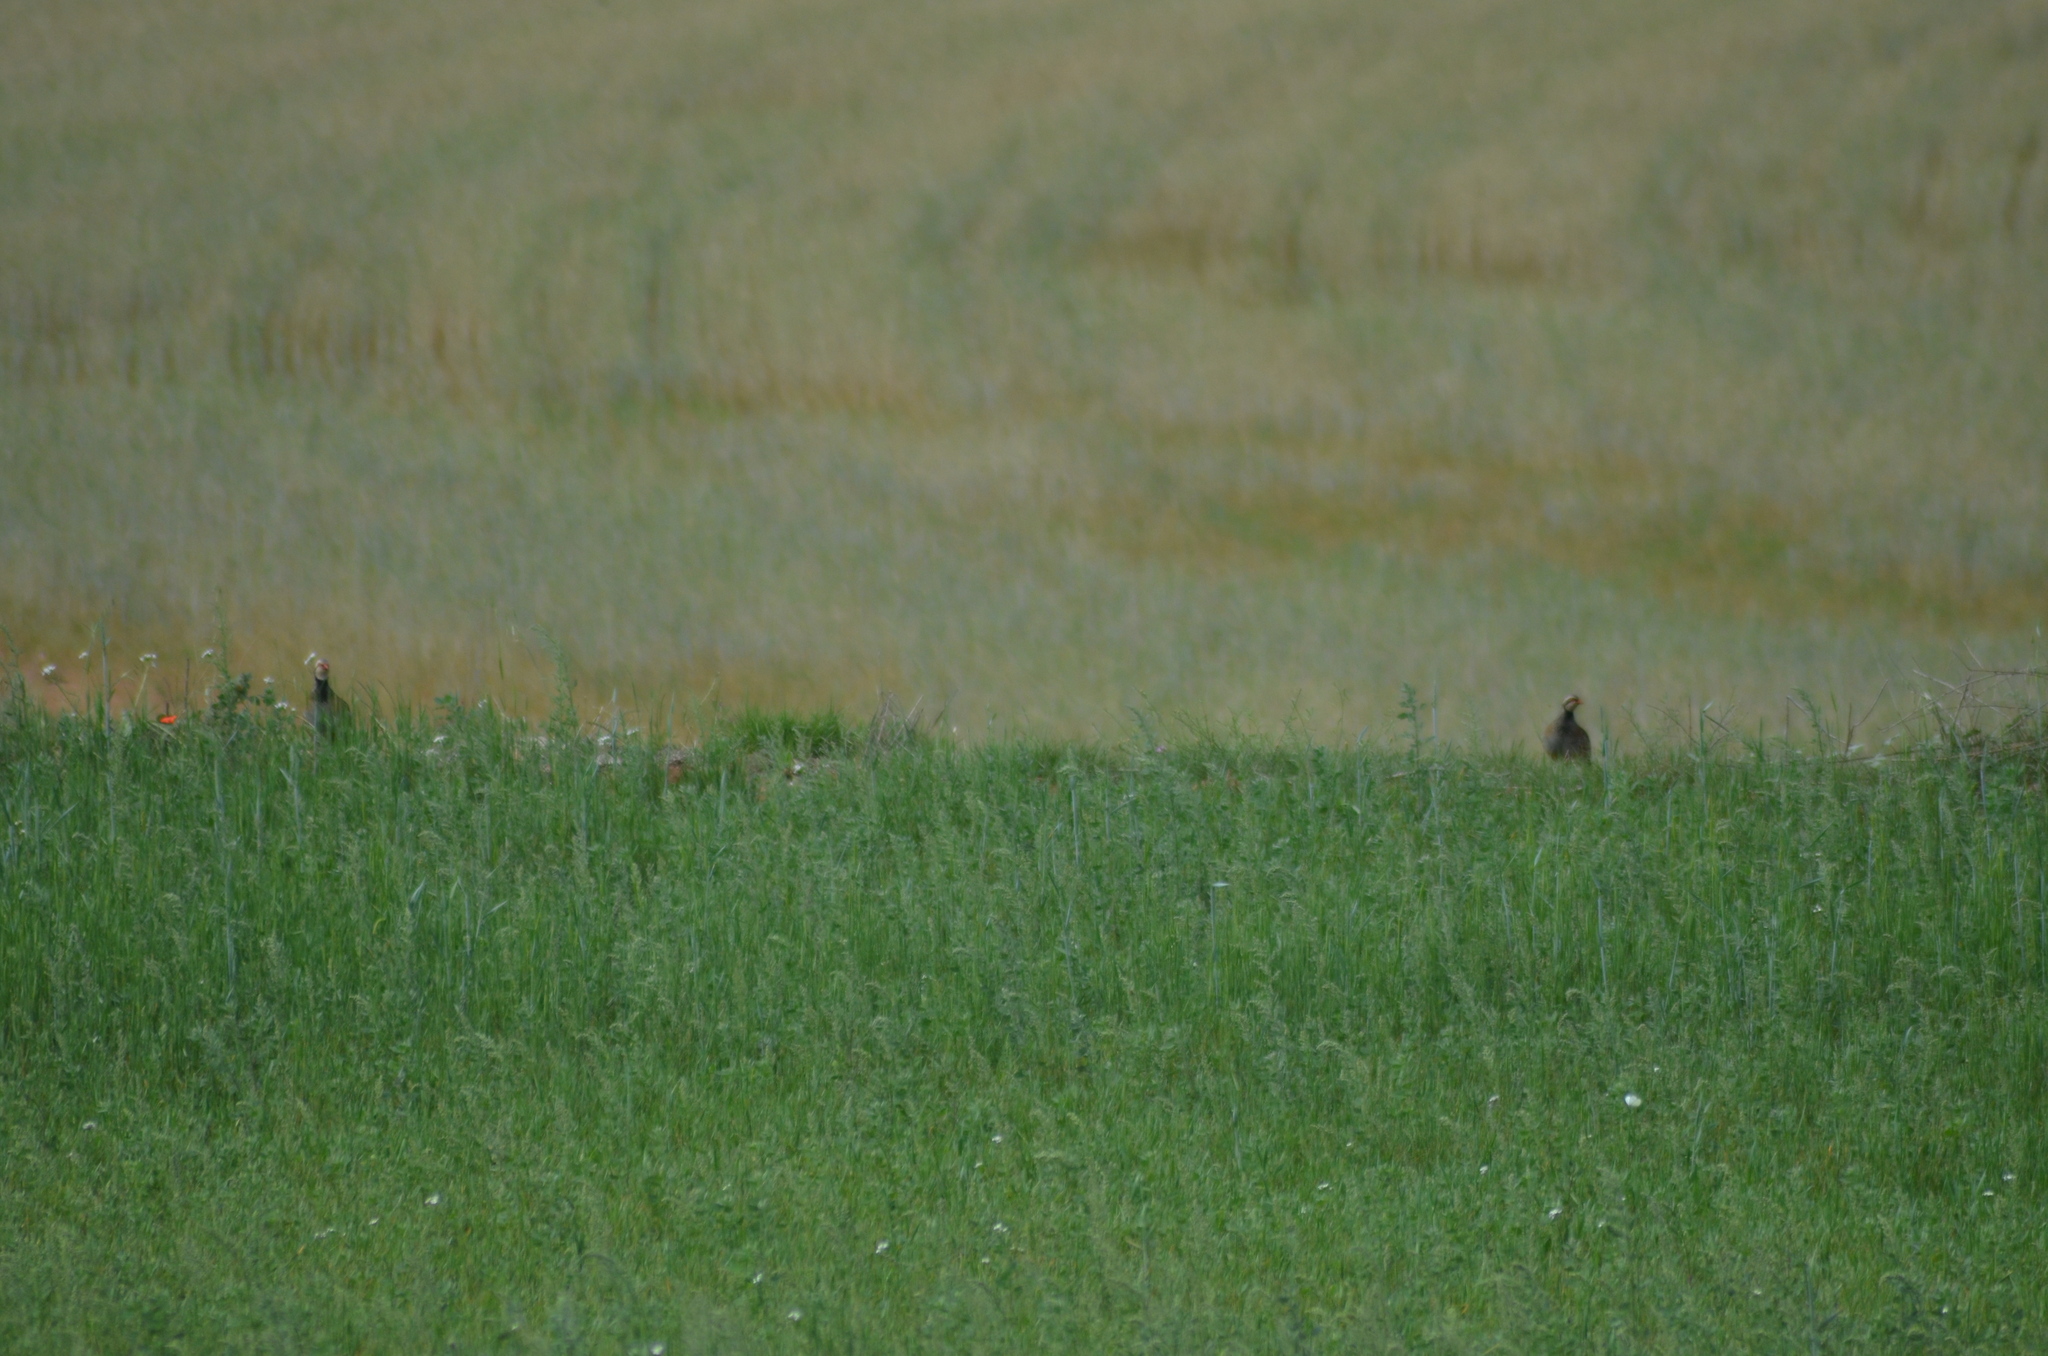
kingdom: Animalia
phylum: Chordata
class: Aves
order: Galliformes
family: Phasianidae
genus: Alectoris
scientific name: Alectoris rufa
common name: Red-legged partridge
